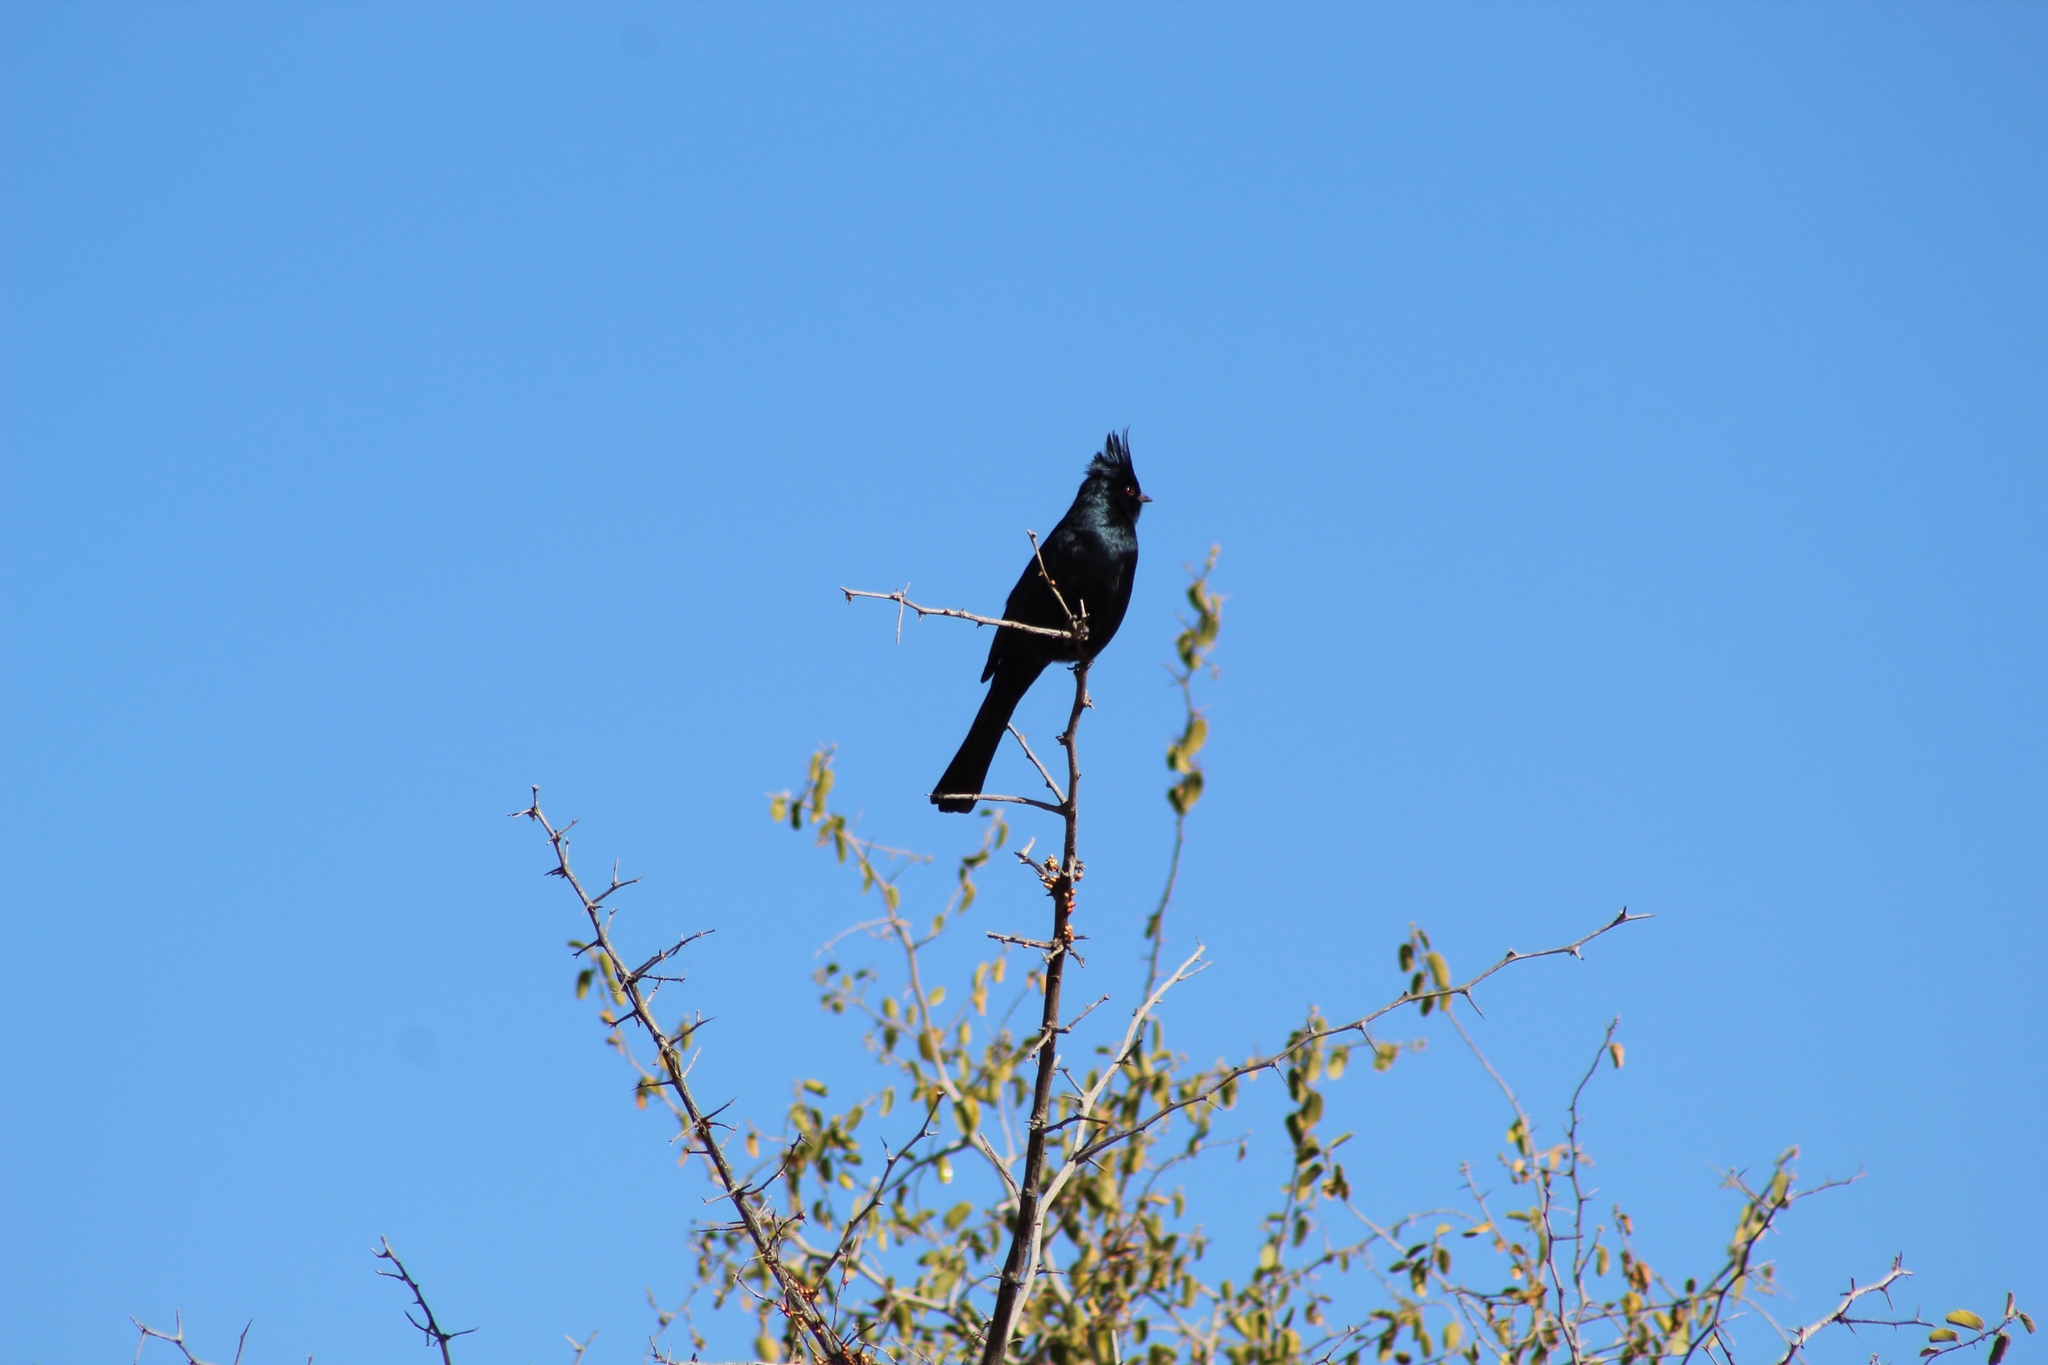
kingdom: Animalia
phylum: Chordata
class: Aves
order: Passeriformes
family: Ptilogonatidae
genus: Phainopepla
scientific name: Phainopepla nitens
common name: Phainopepla
